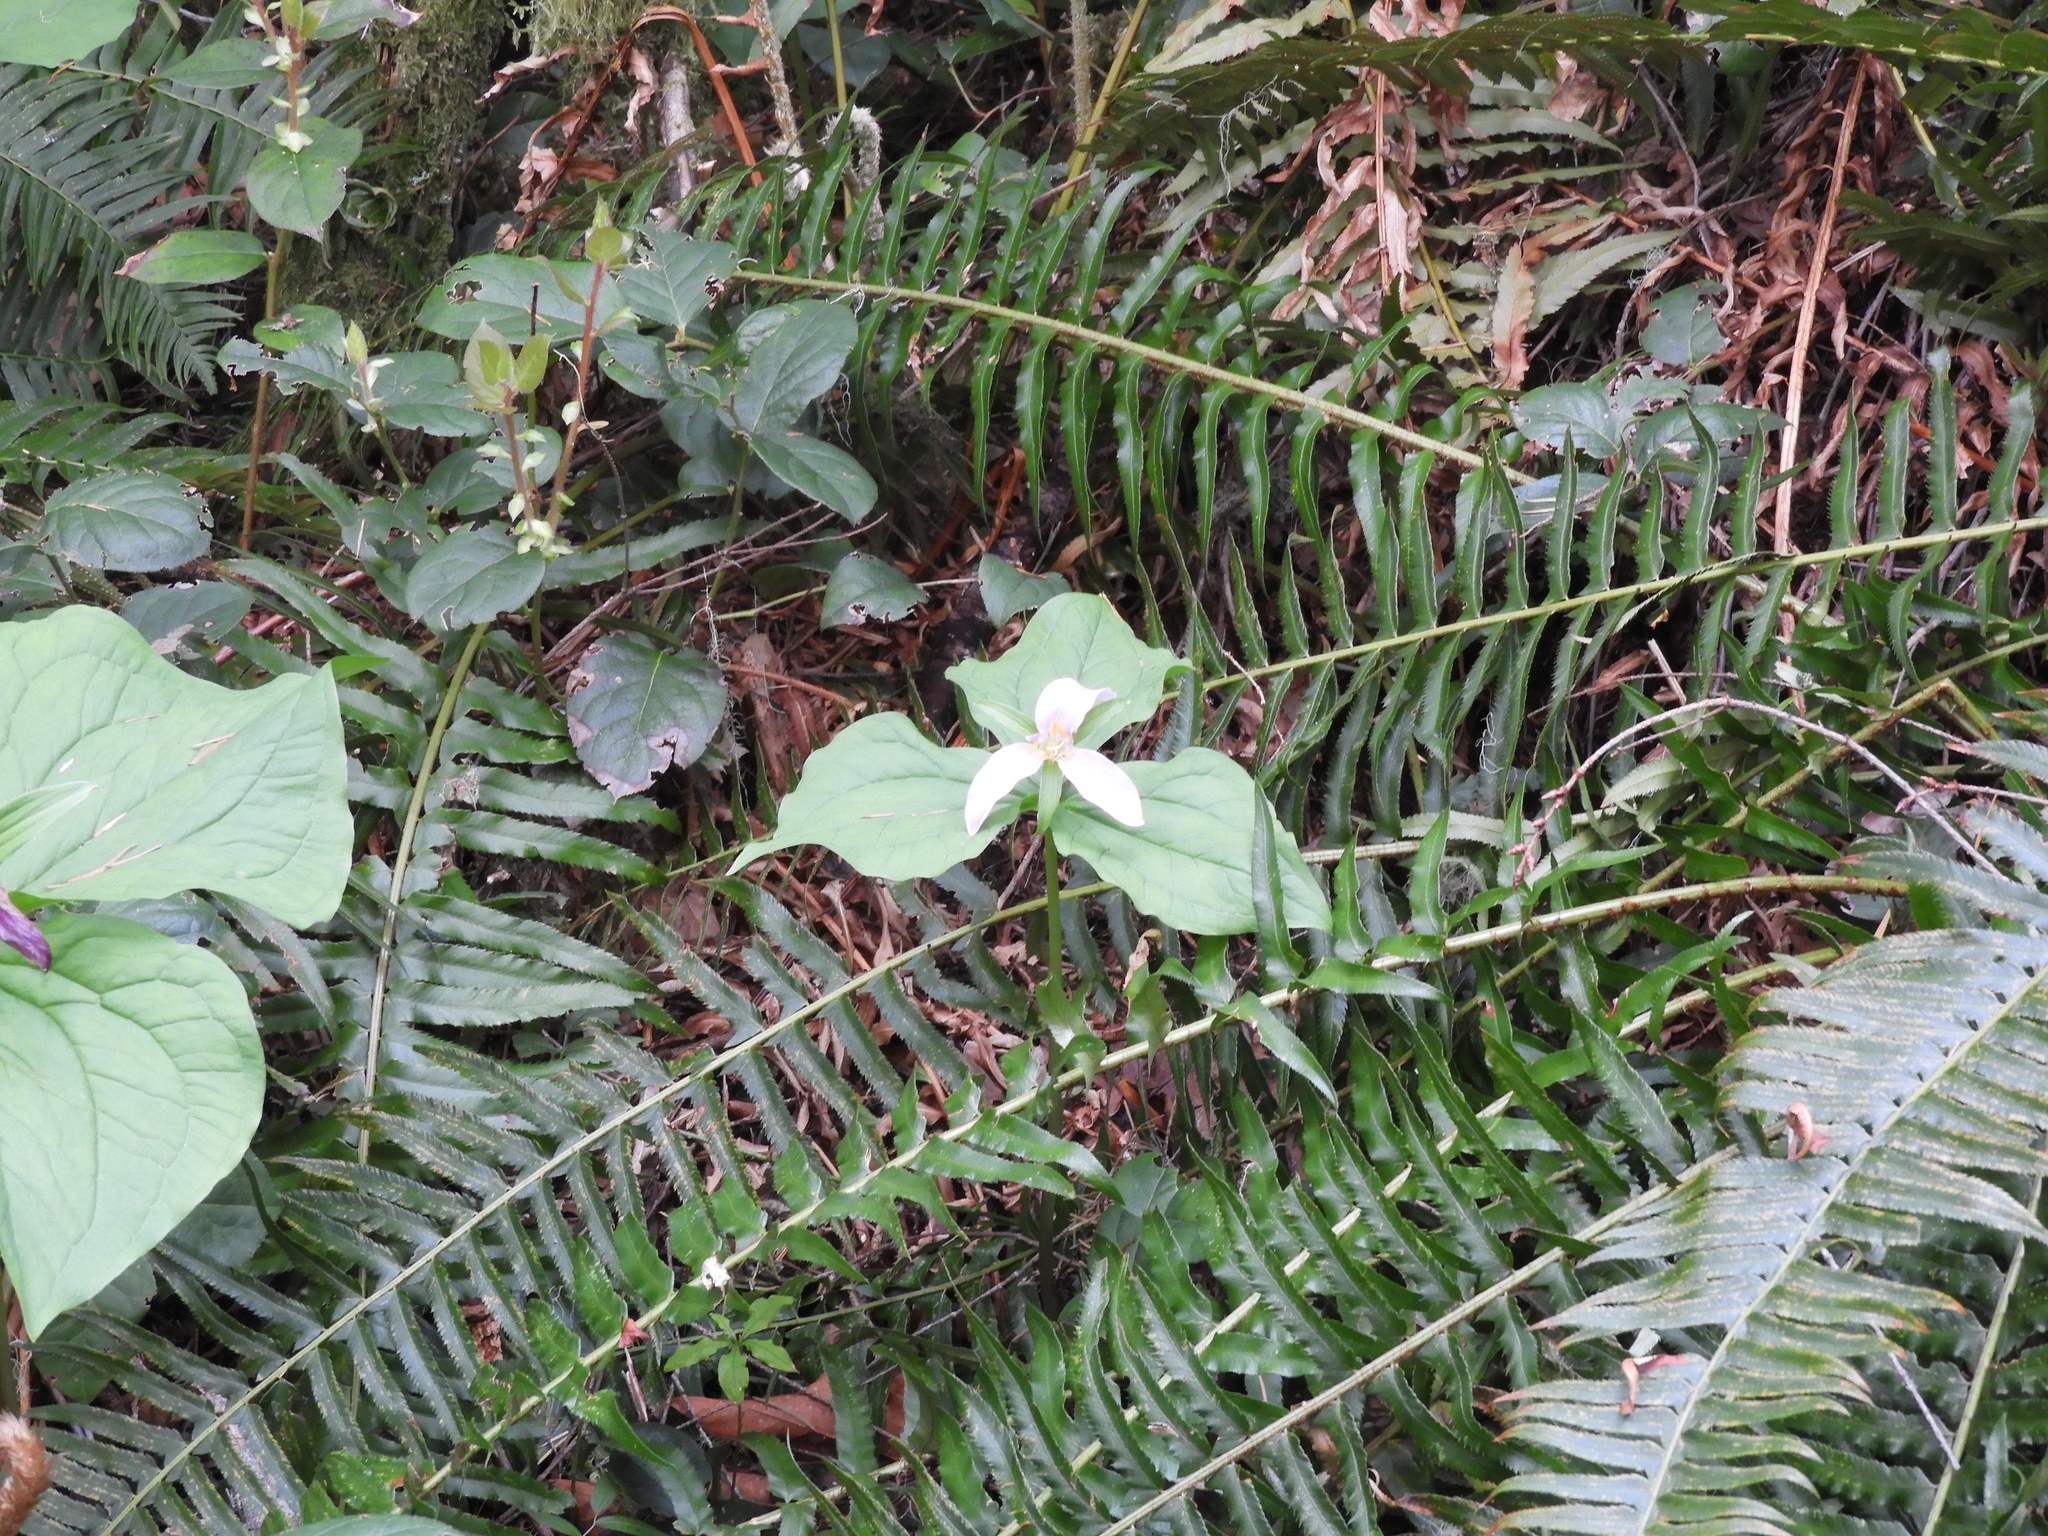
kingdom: Plantae
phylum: Tracheophyta
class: Liliopsida
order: Liliales
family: Melanthiaceae
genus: Trillium
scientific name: Trillium ovatum
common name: Pacific trillium
